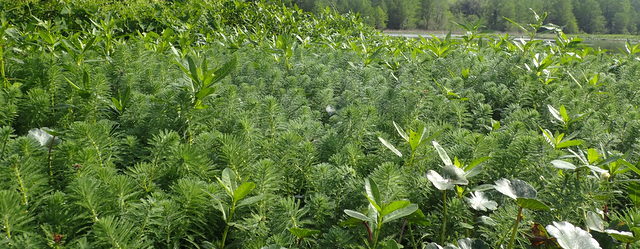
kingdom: Plantae
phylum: Tracheophyta
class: Magnoliopsida
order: Saxifragales
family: Haloragaceae
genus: Myriophyllum
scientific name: Myriophyllum aquaticum
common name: Parrot's feather
